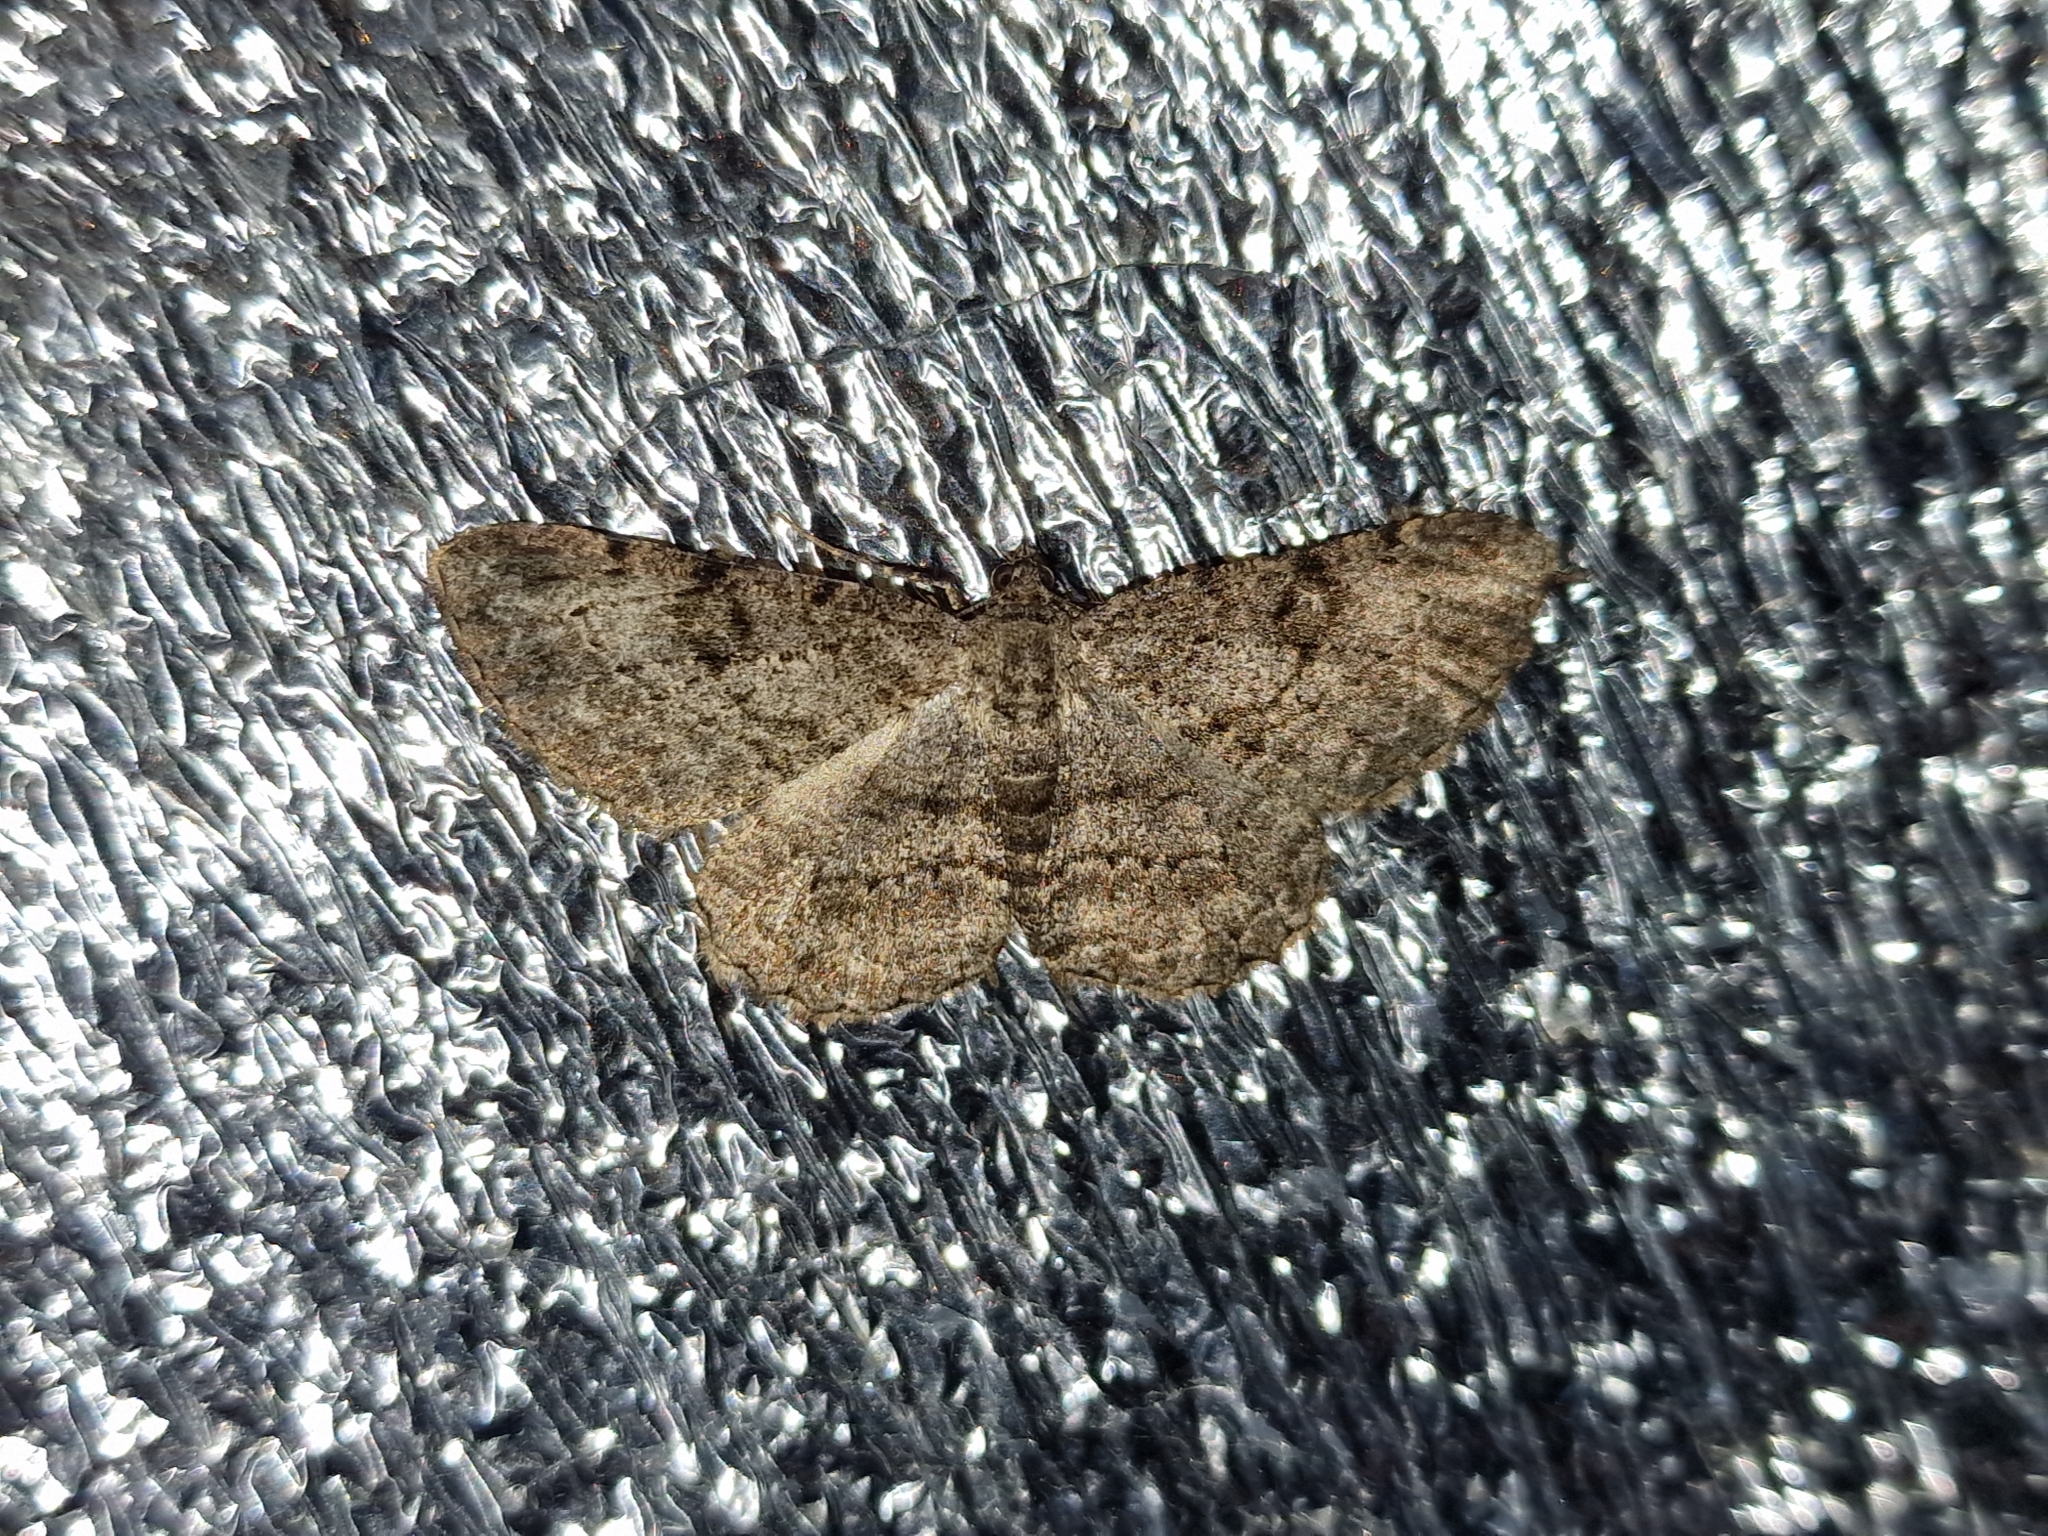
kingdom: Animalia
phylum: Arthropoda
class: Insecta
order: Lepidoptera
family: Geometridae
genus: Peribatodes
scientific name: Peribatodes rhomboidaria
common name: Willow beauty
